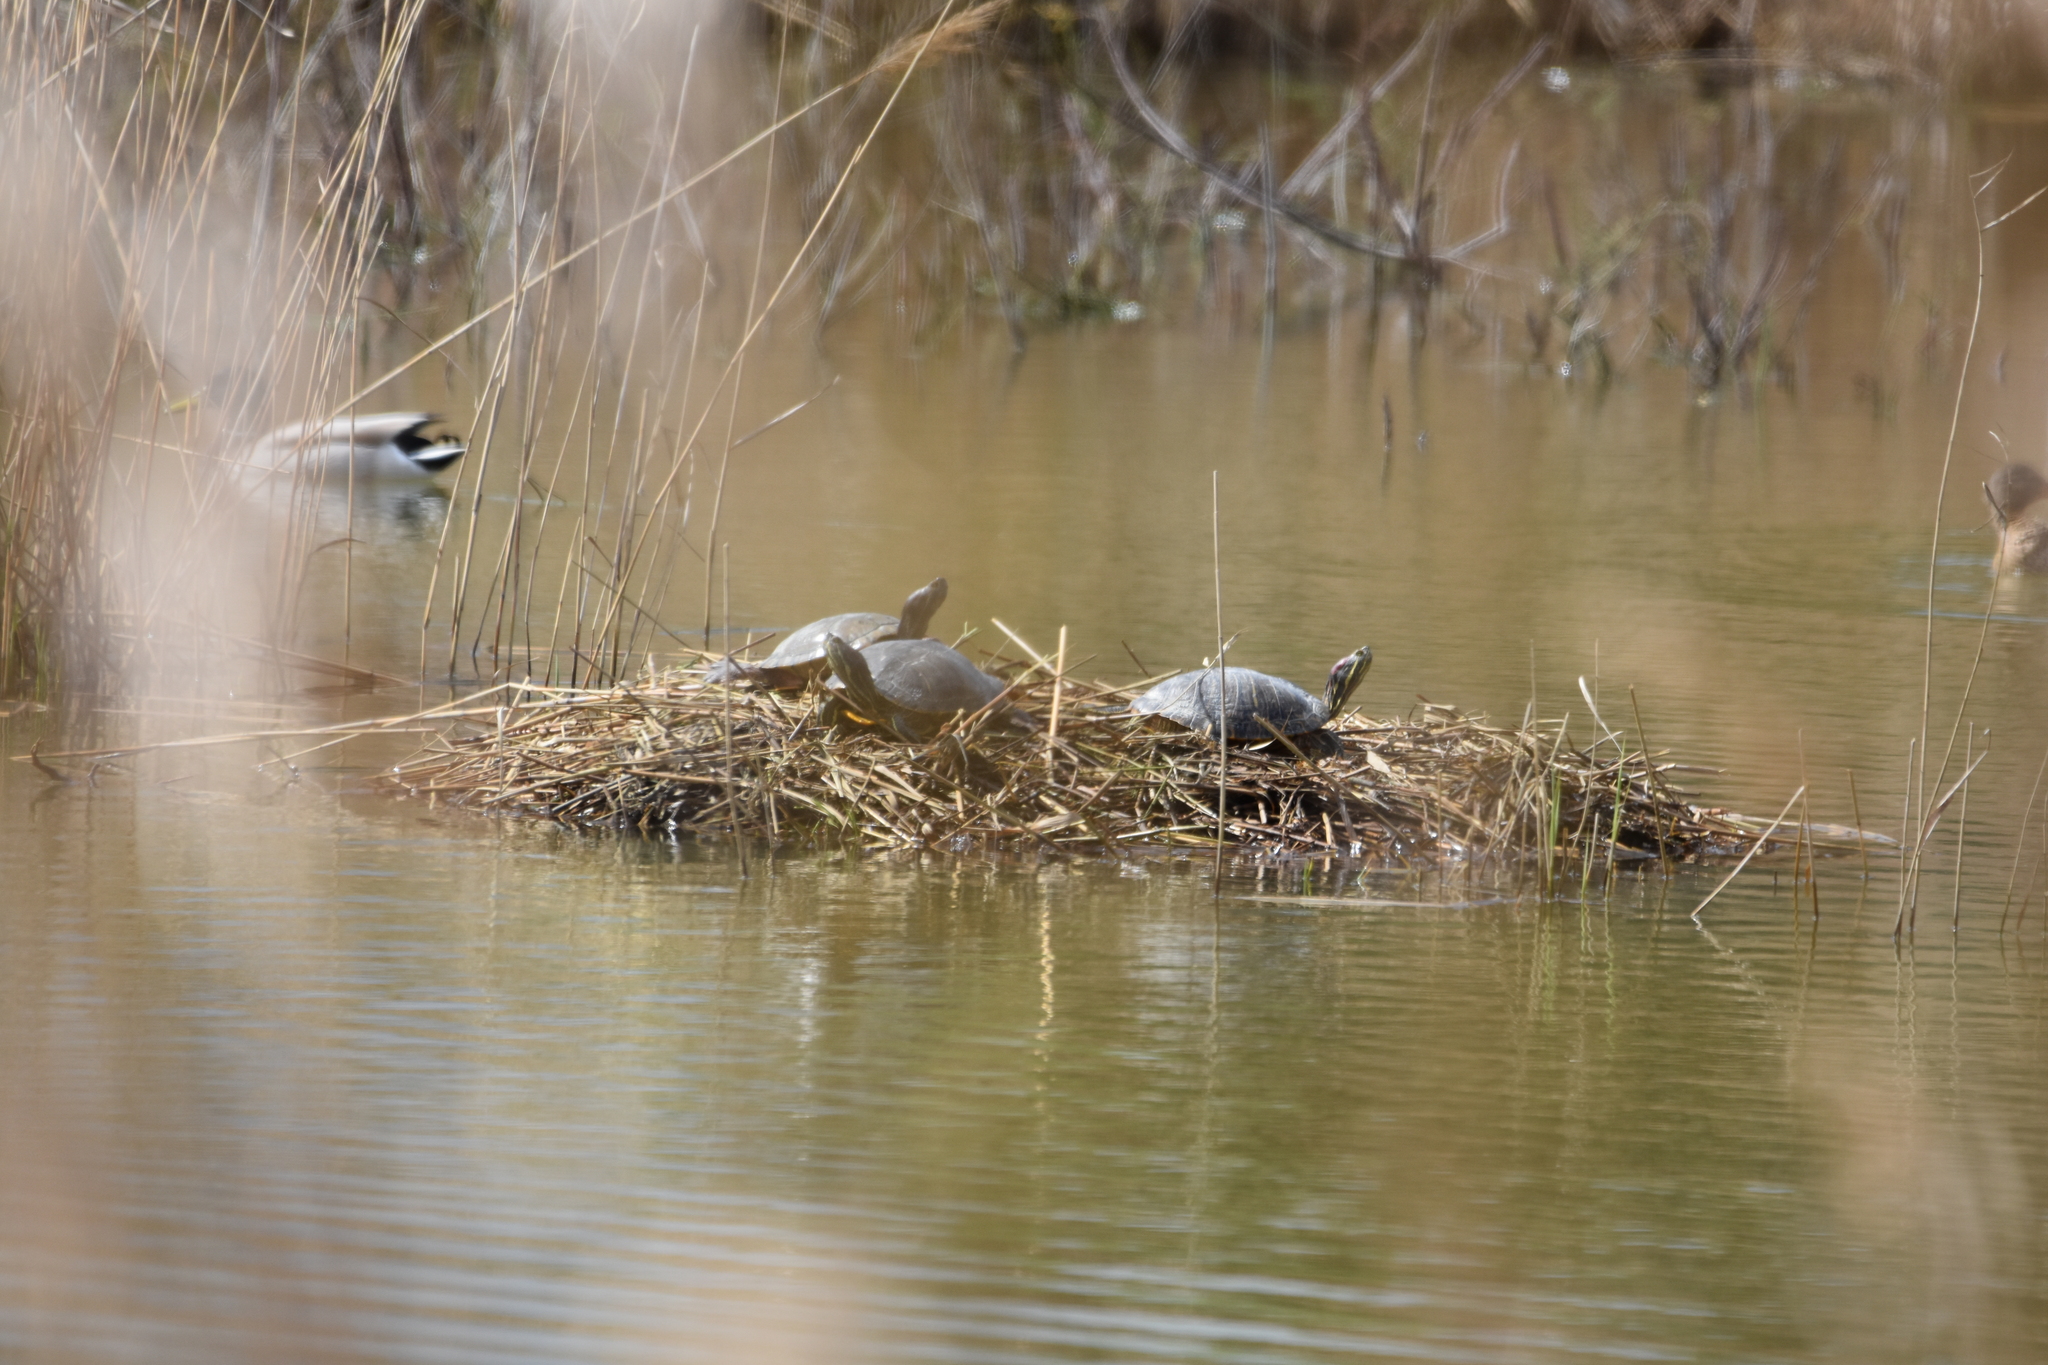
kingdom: Animalia
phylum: Chordata
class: Testudines
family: Emydidae
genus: Trachemys
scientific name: Trachemys scripta
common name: Slider
